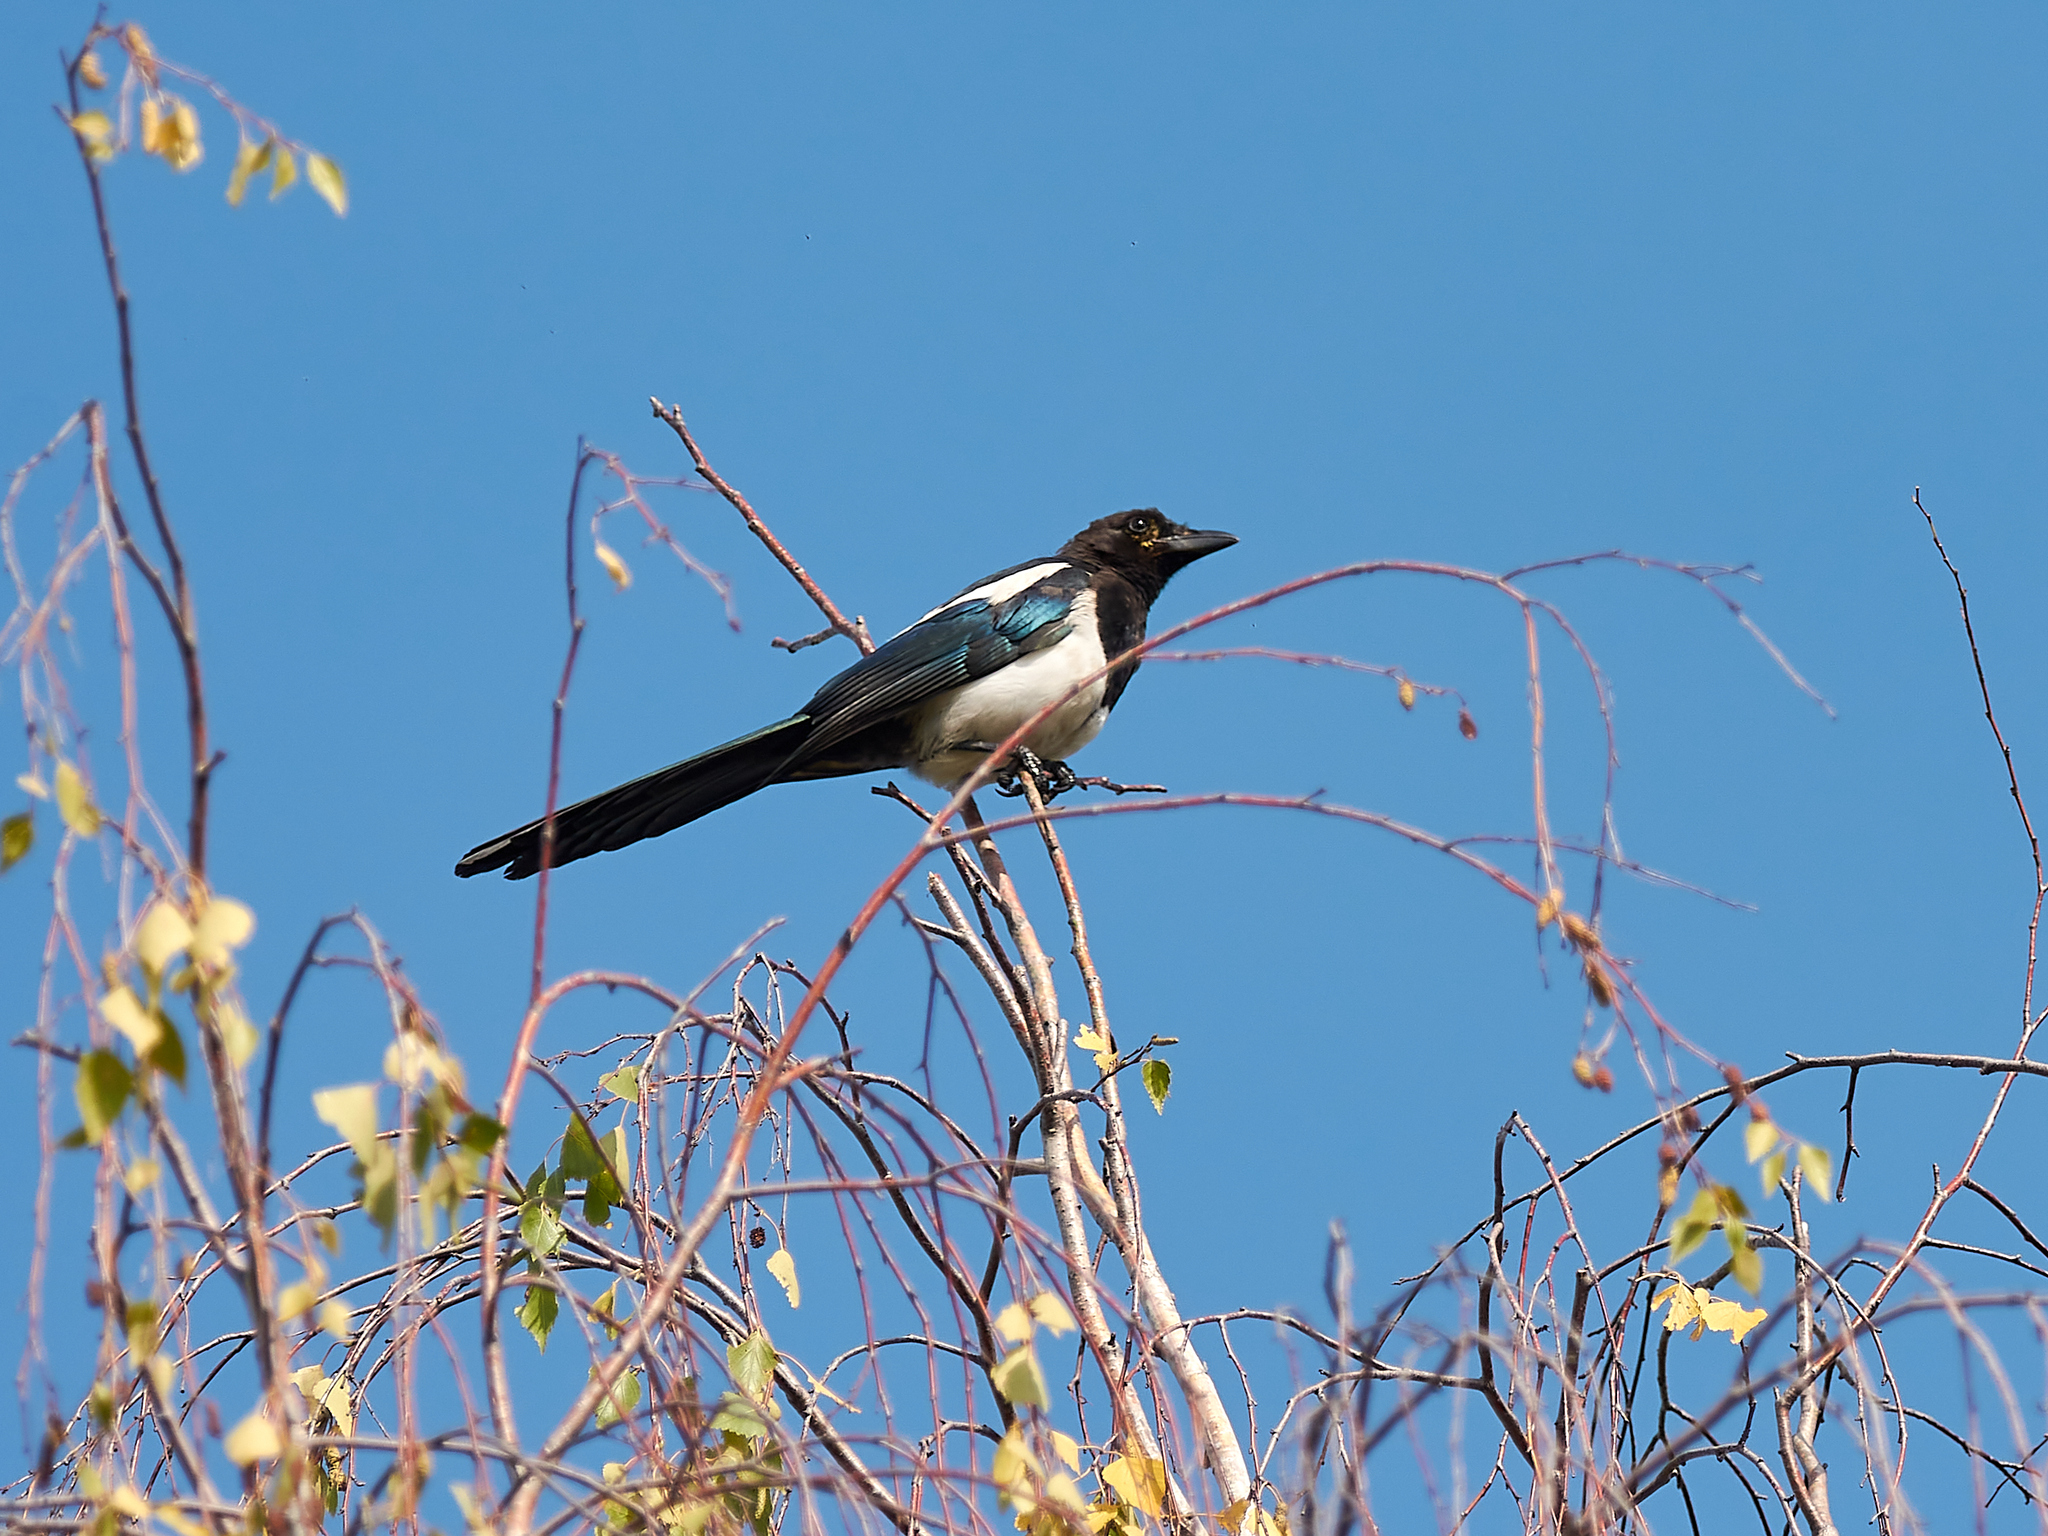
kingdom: Animalia
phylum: Chordata
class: Aves
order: Passeriformes
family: Corvidae
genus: Pica
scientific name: Pica pica
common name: Eurasian magpie
